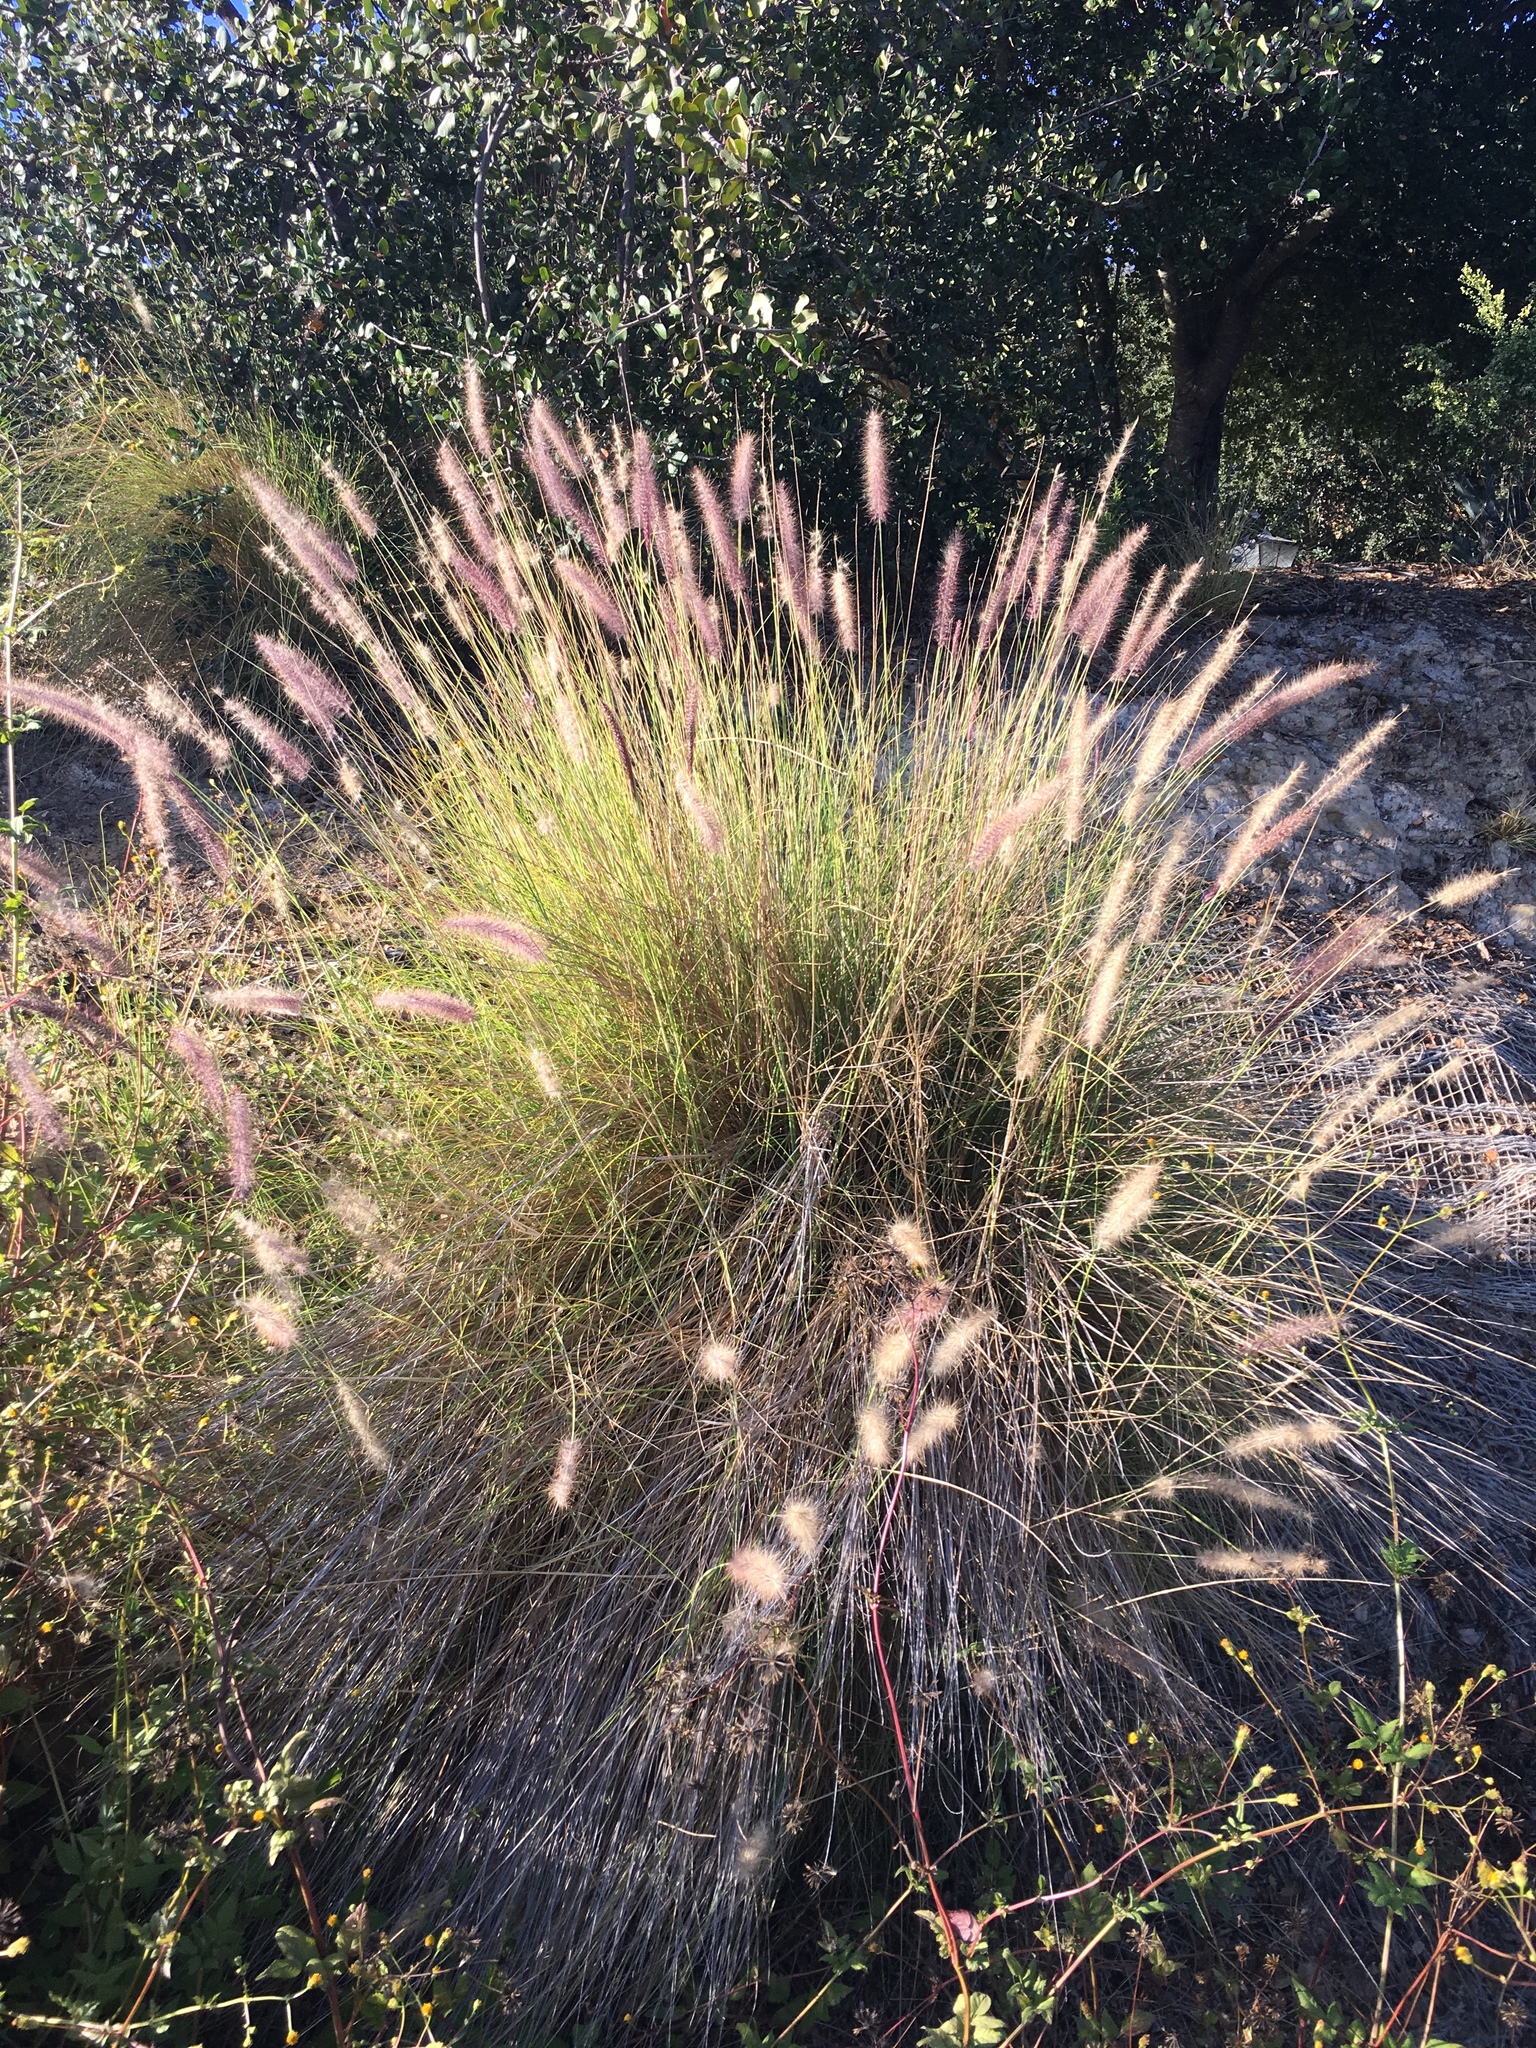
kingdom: Plantae
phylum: Tracheophyta
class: Liliopsida
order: Poales
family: Poaceae
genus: Cenchrus
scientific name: Cenchrus setaceus
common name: Crimson fountaingrass
